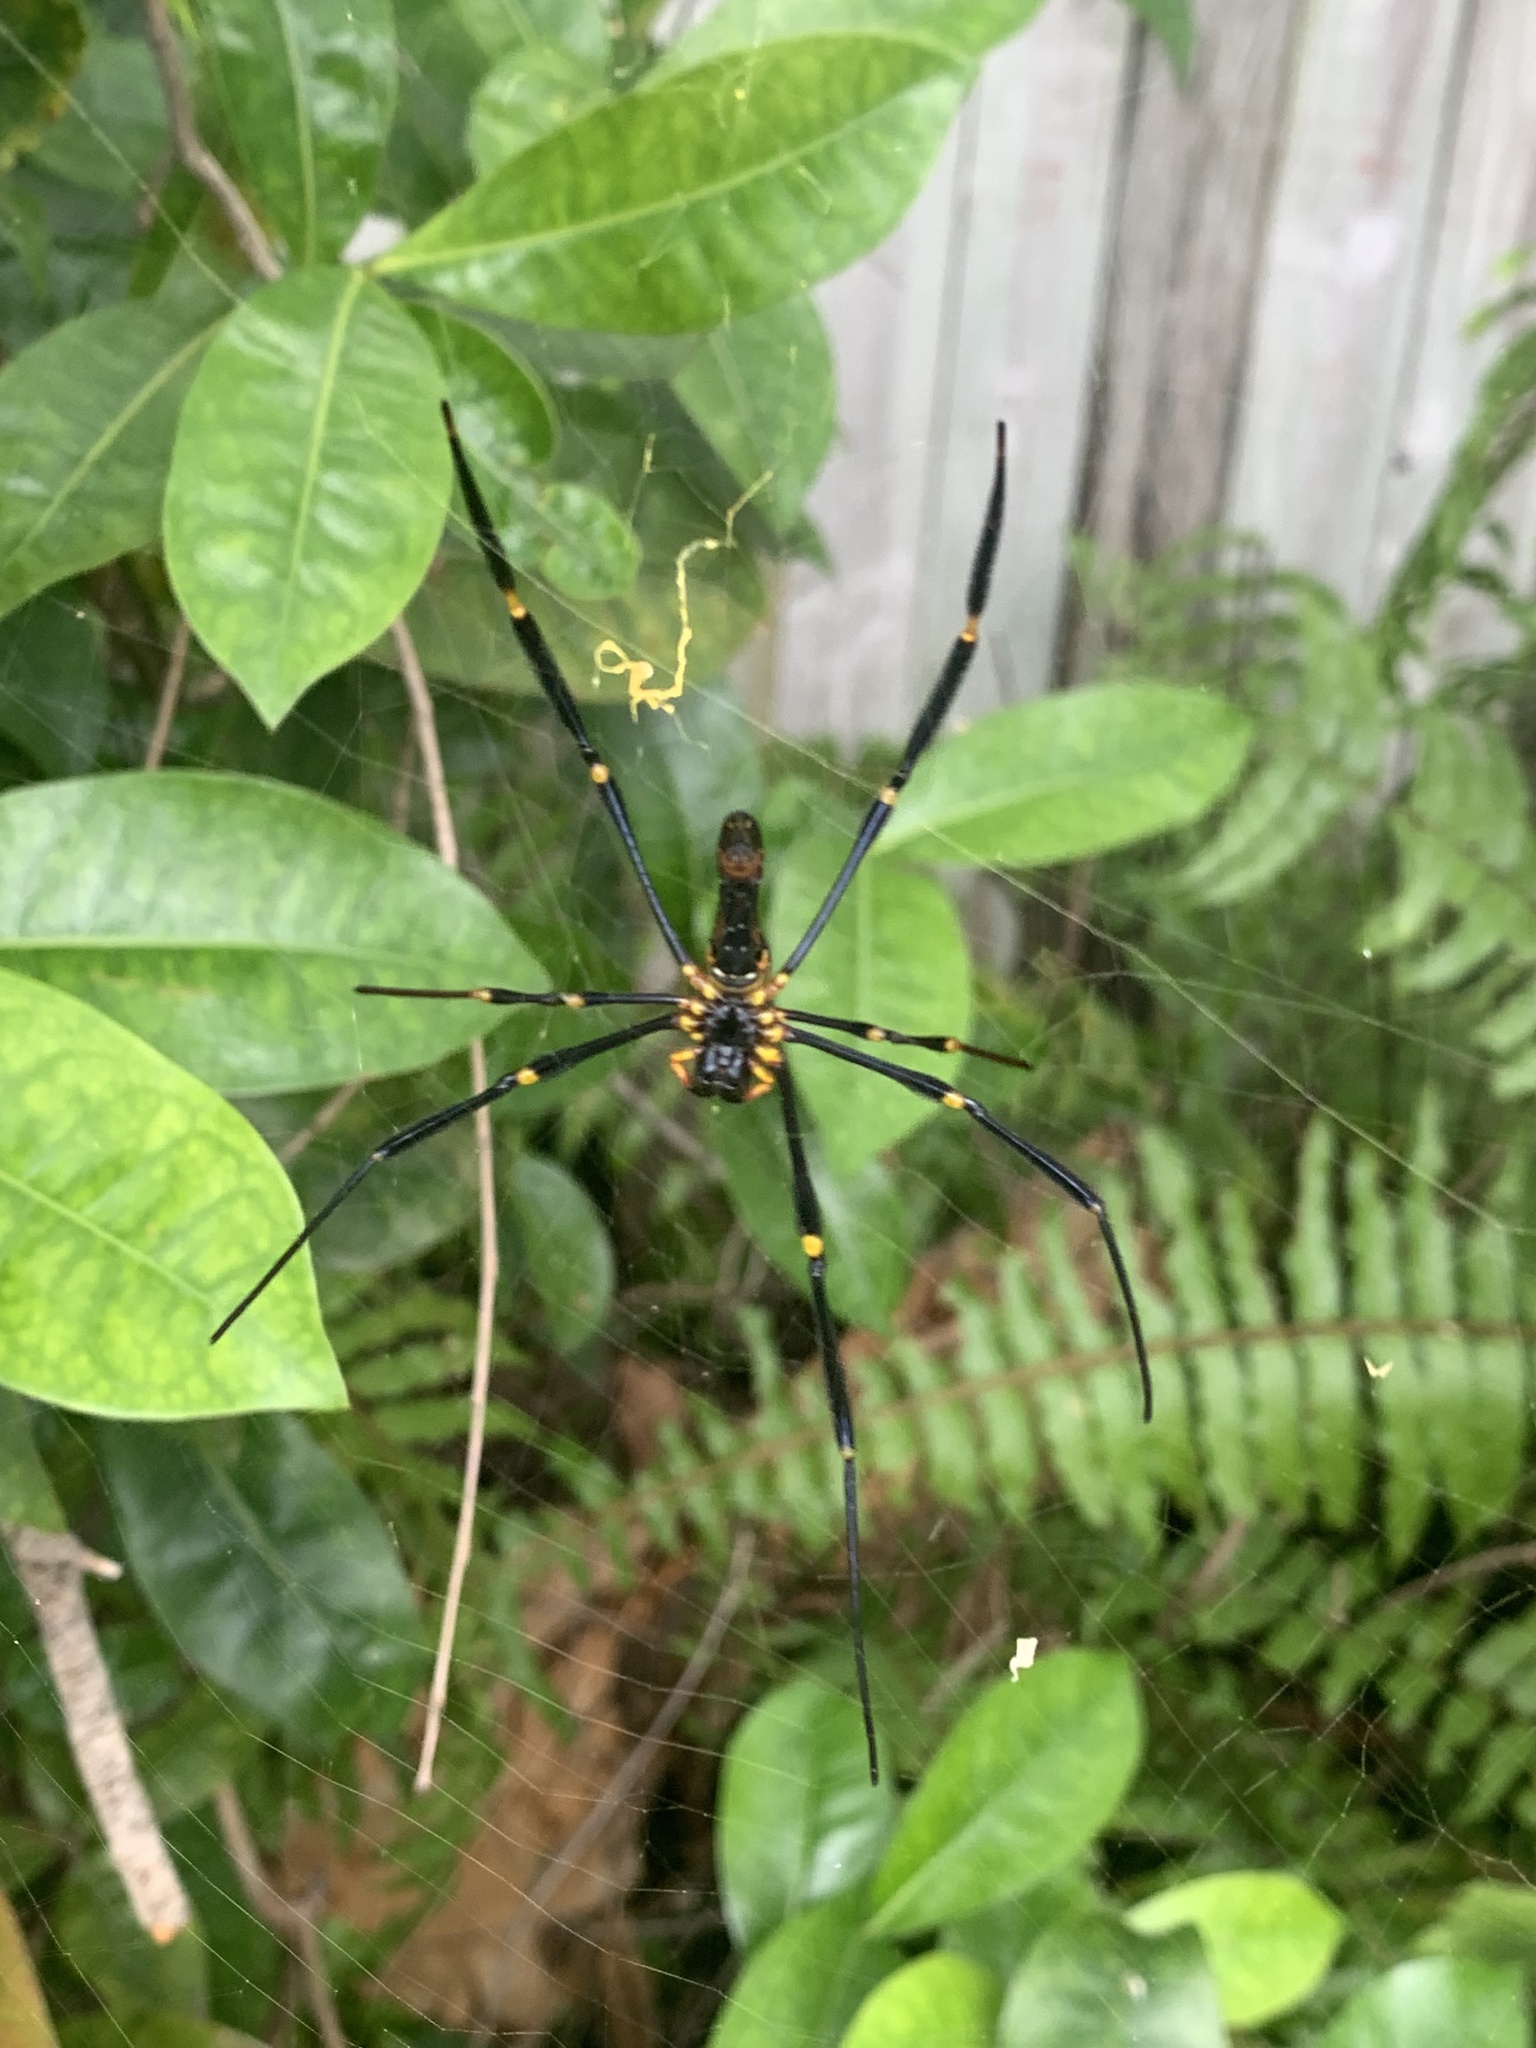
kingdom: Animalia
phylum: Arthropoda
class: Arachnida
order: Araneae
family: Araneidae
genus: Nephila
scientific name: Nephila pilipes
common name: Giant golden orb weaver
